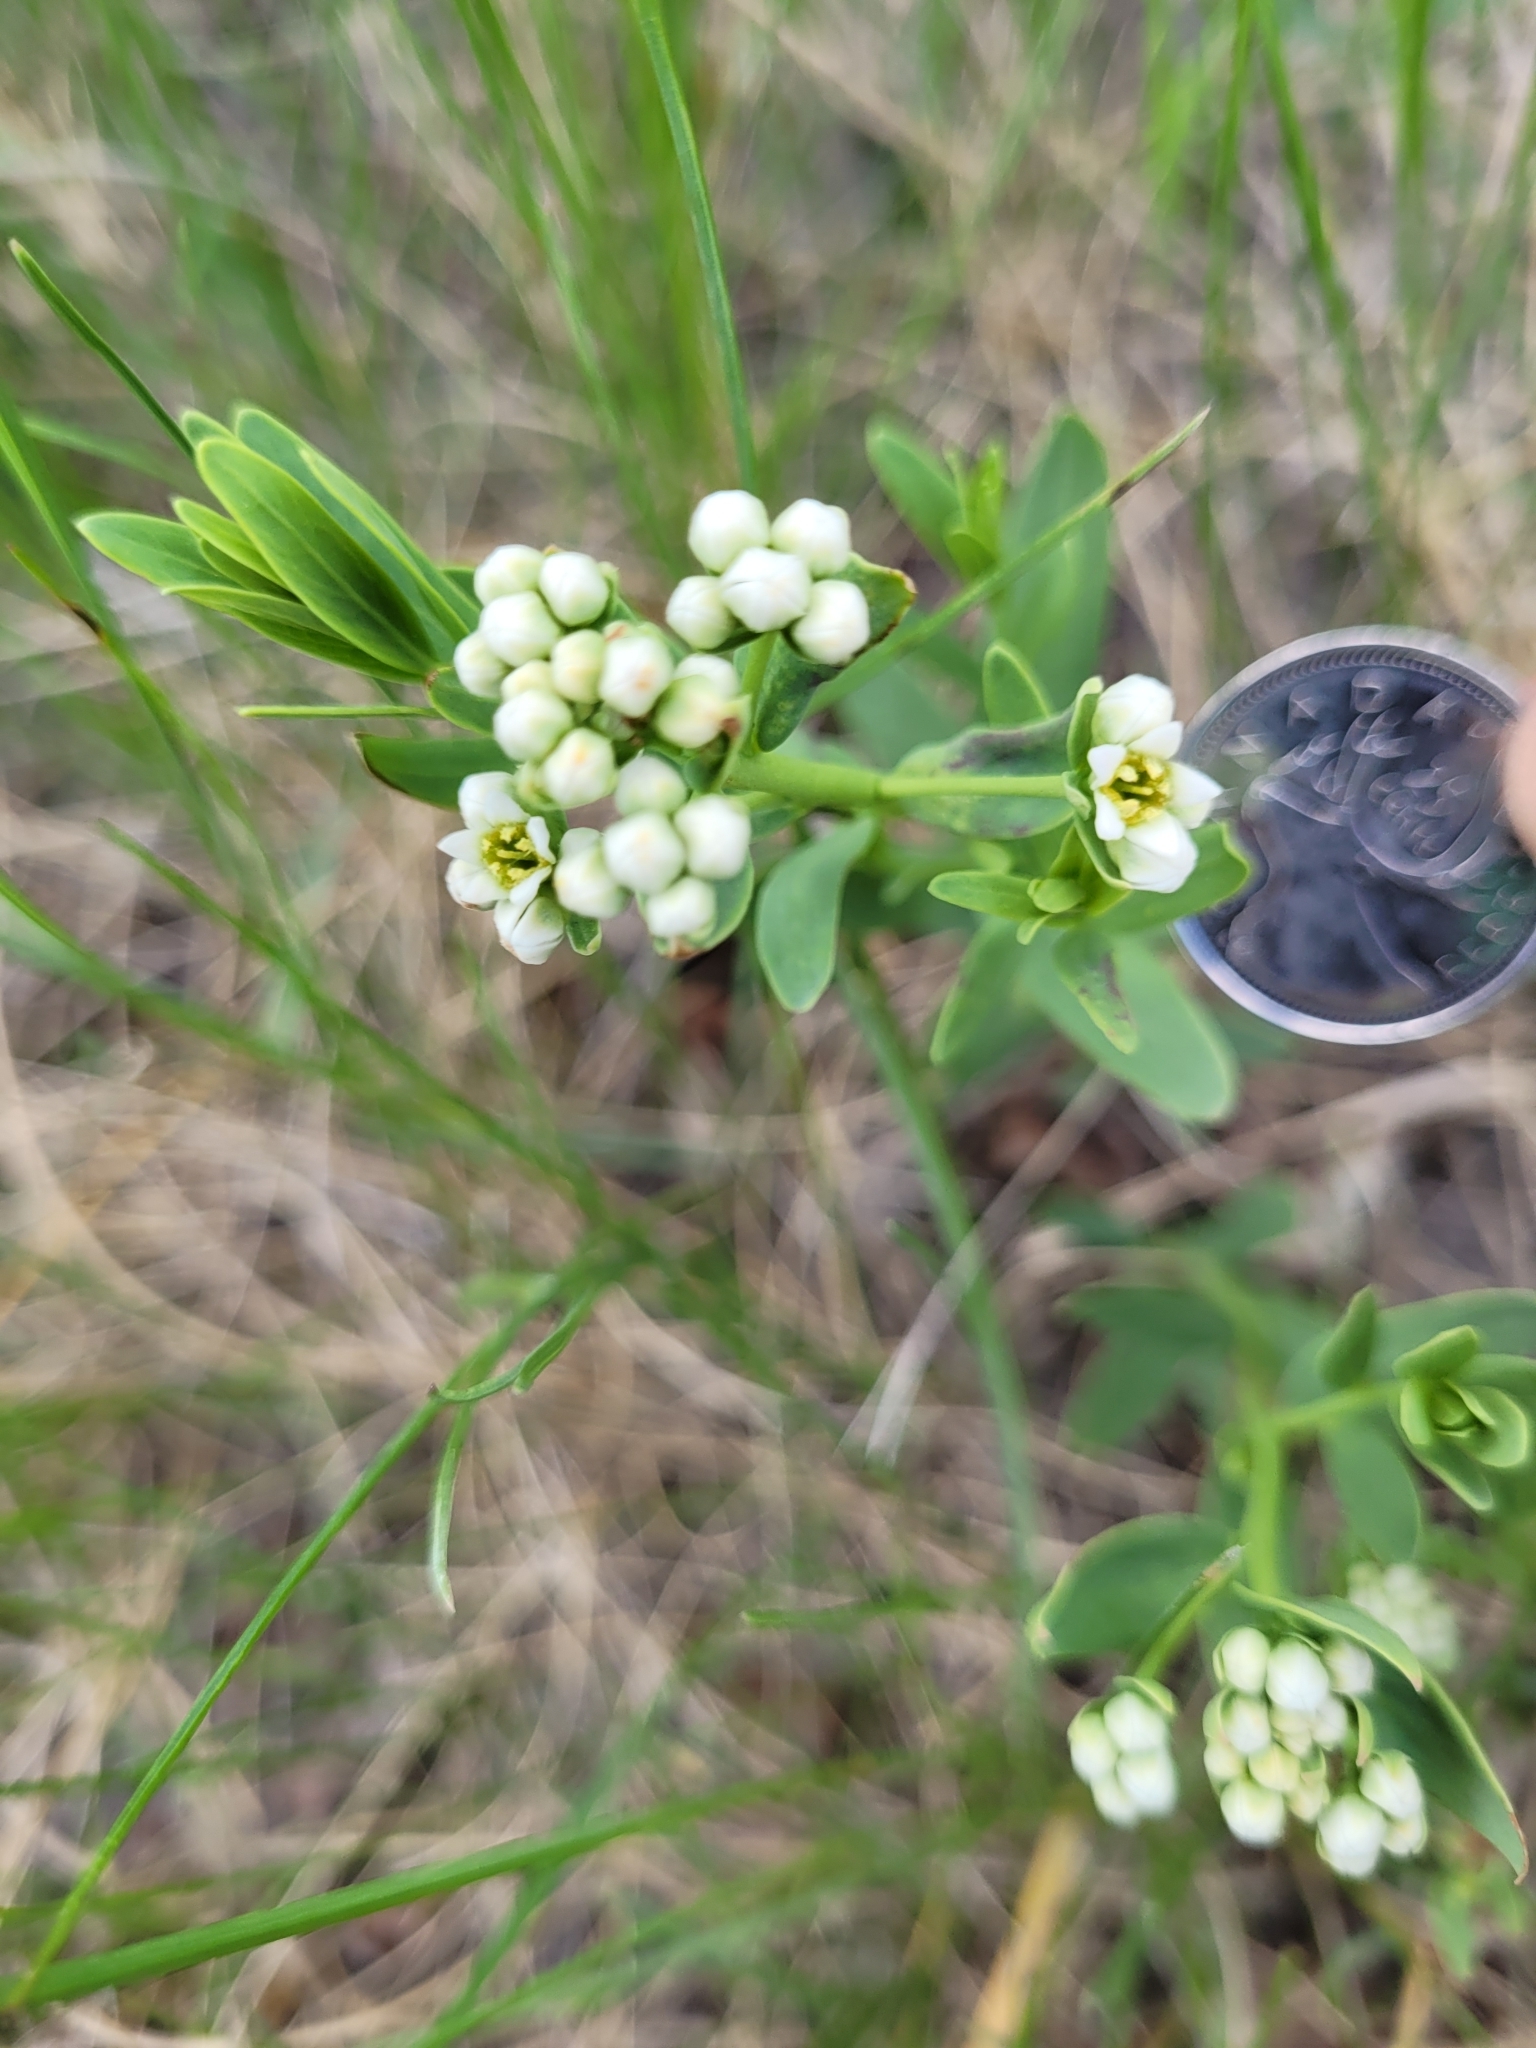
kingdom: Plantae
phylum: Tracheophyta
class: Magnoliopsida
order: Santalales
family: Comandraceae
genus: Comandra
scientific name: Comandra umbellata
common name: Bastard toadflax
